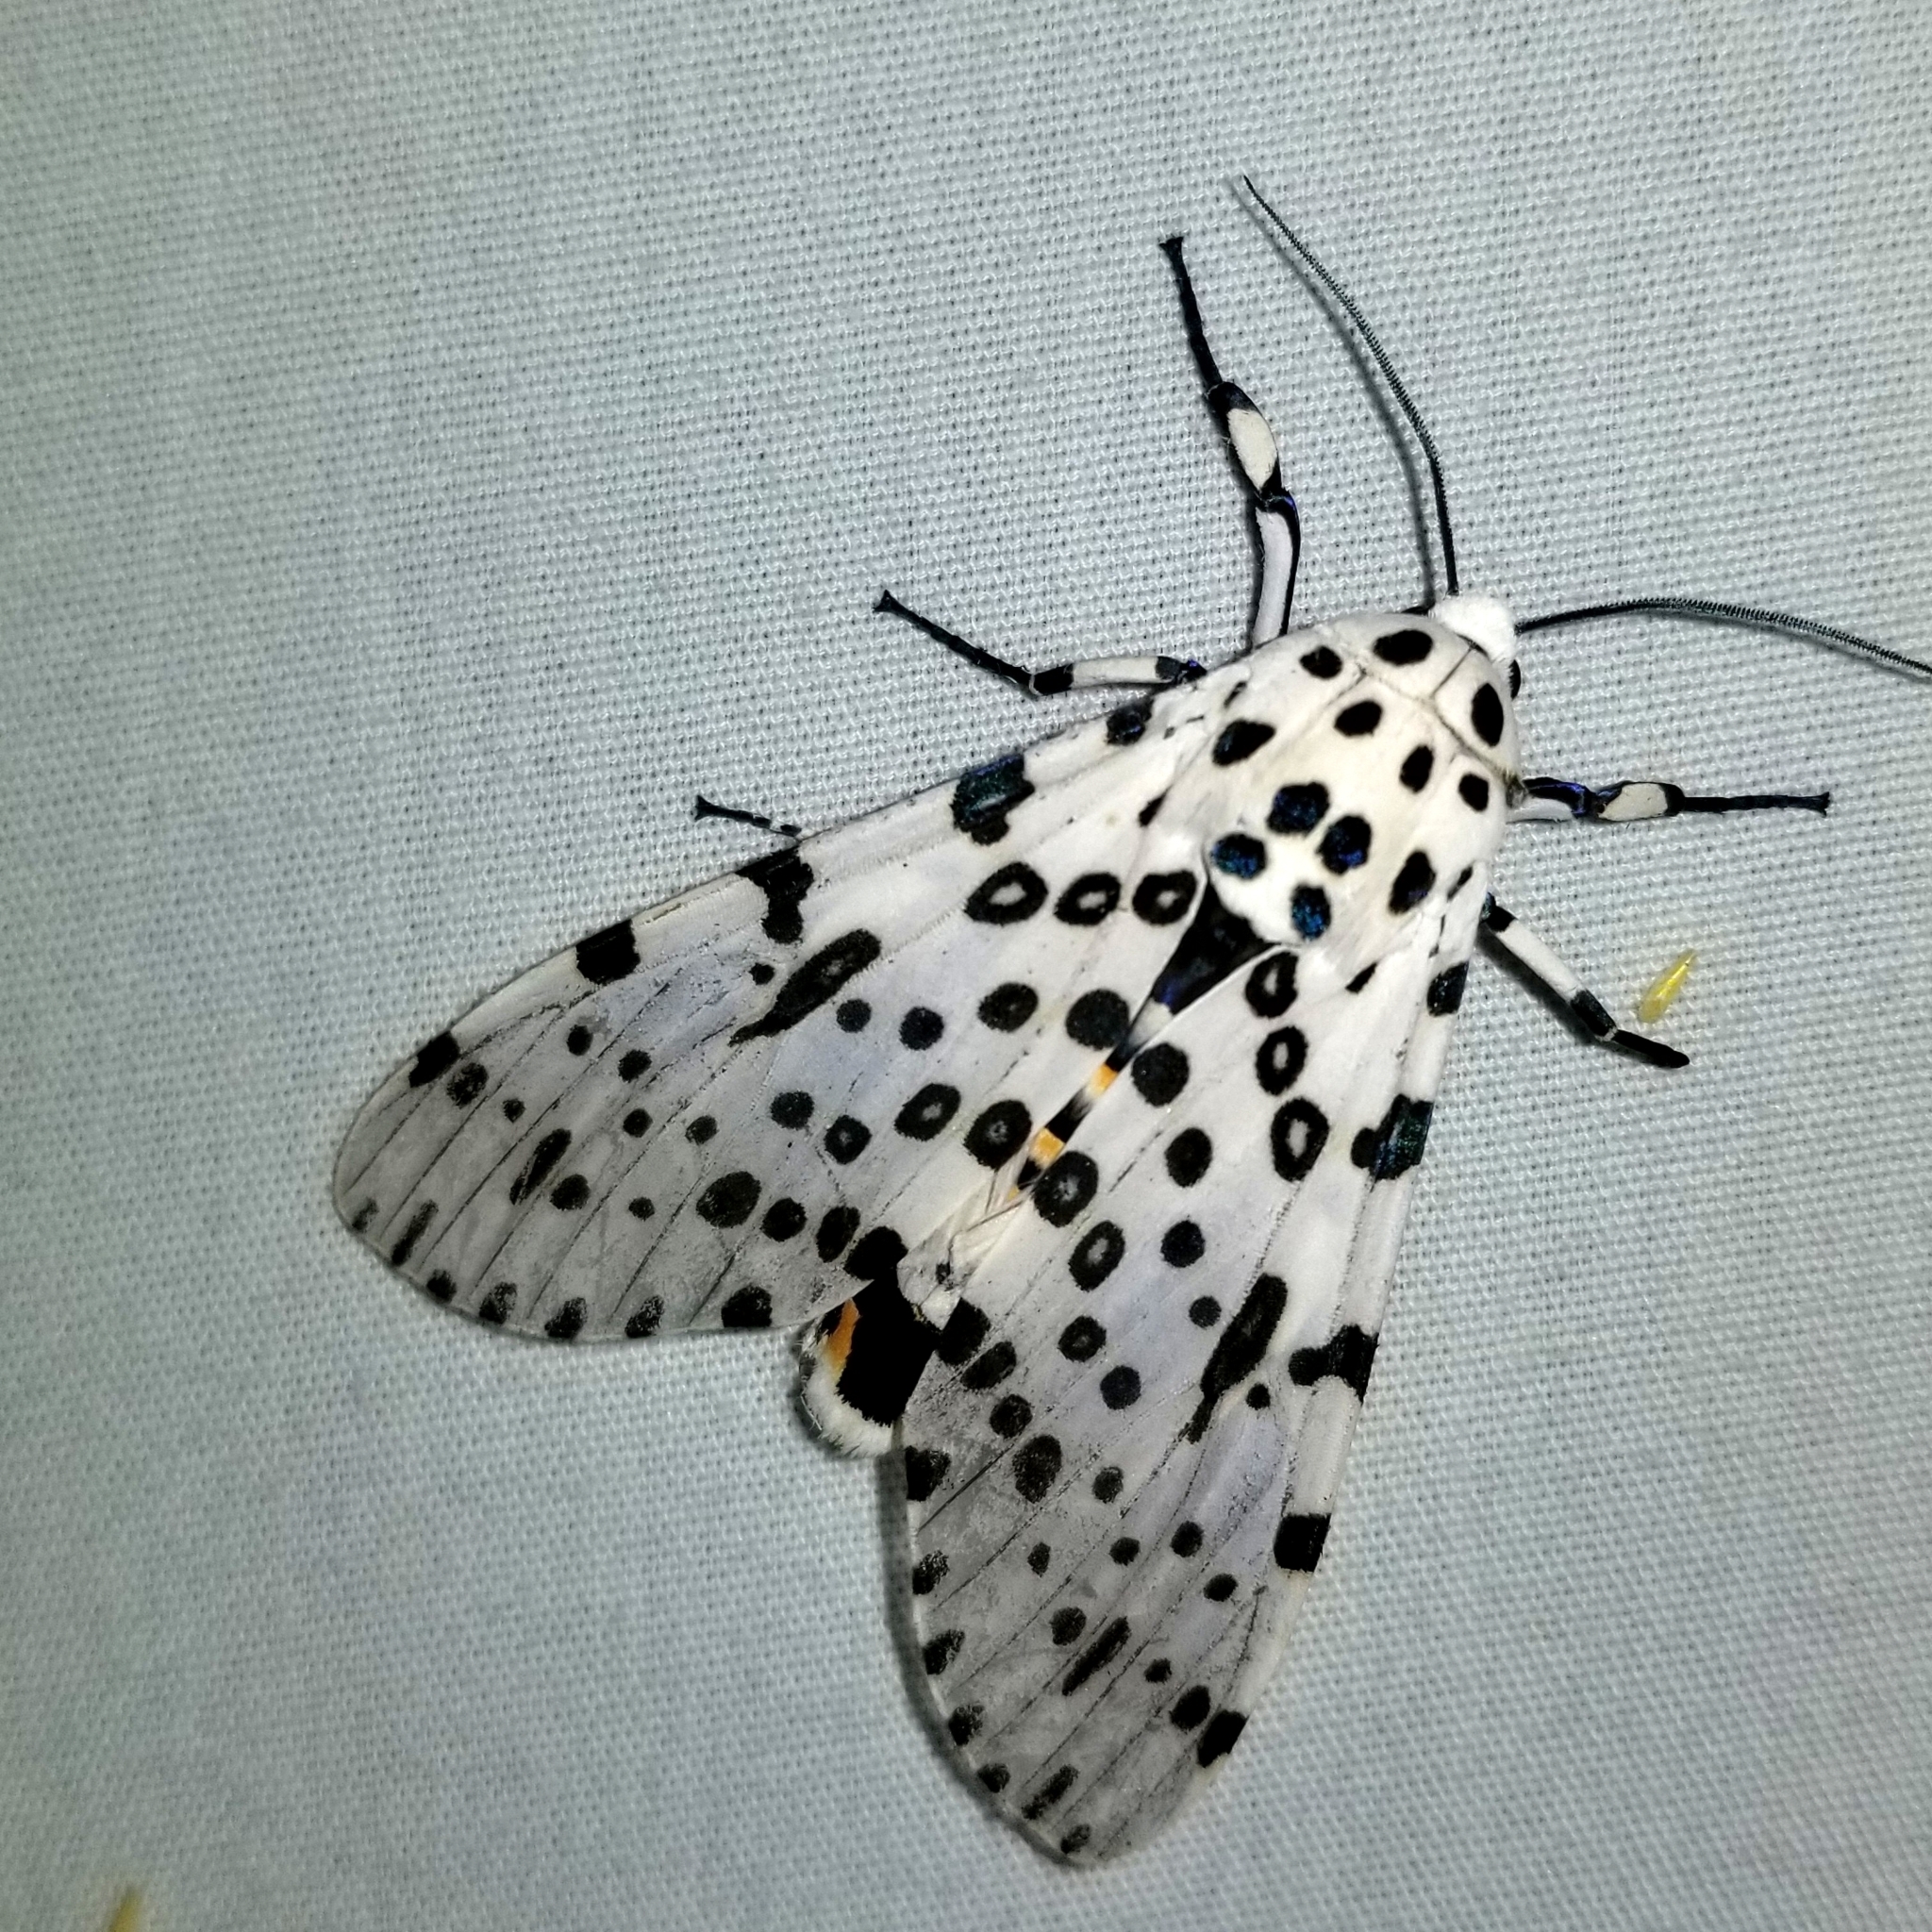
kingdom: Animalia
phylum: Arthropoda
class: Insecta
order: Lepidoptera
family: Erebidae
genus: Hypercompe
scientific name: Hypercompe scribonia
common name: Giant leopard moth
